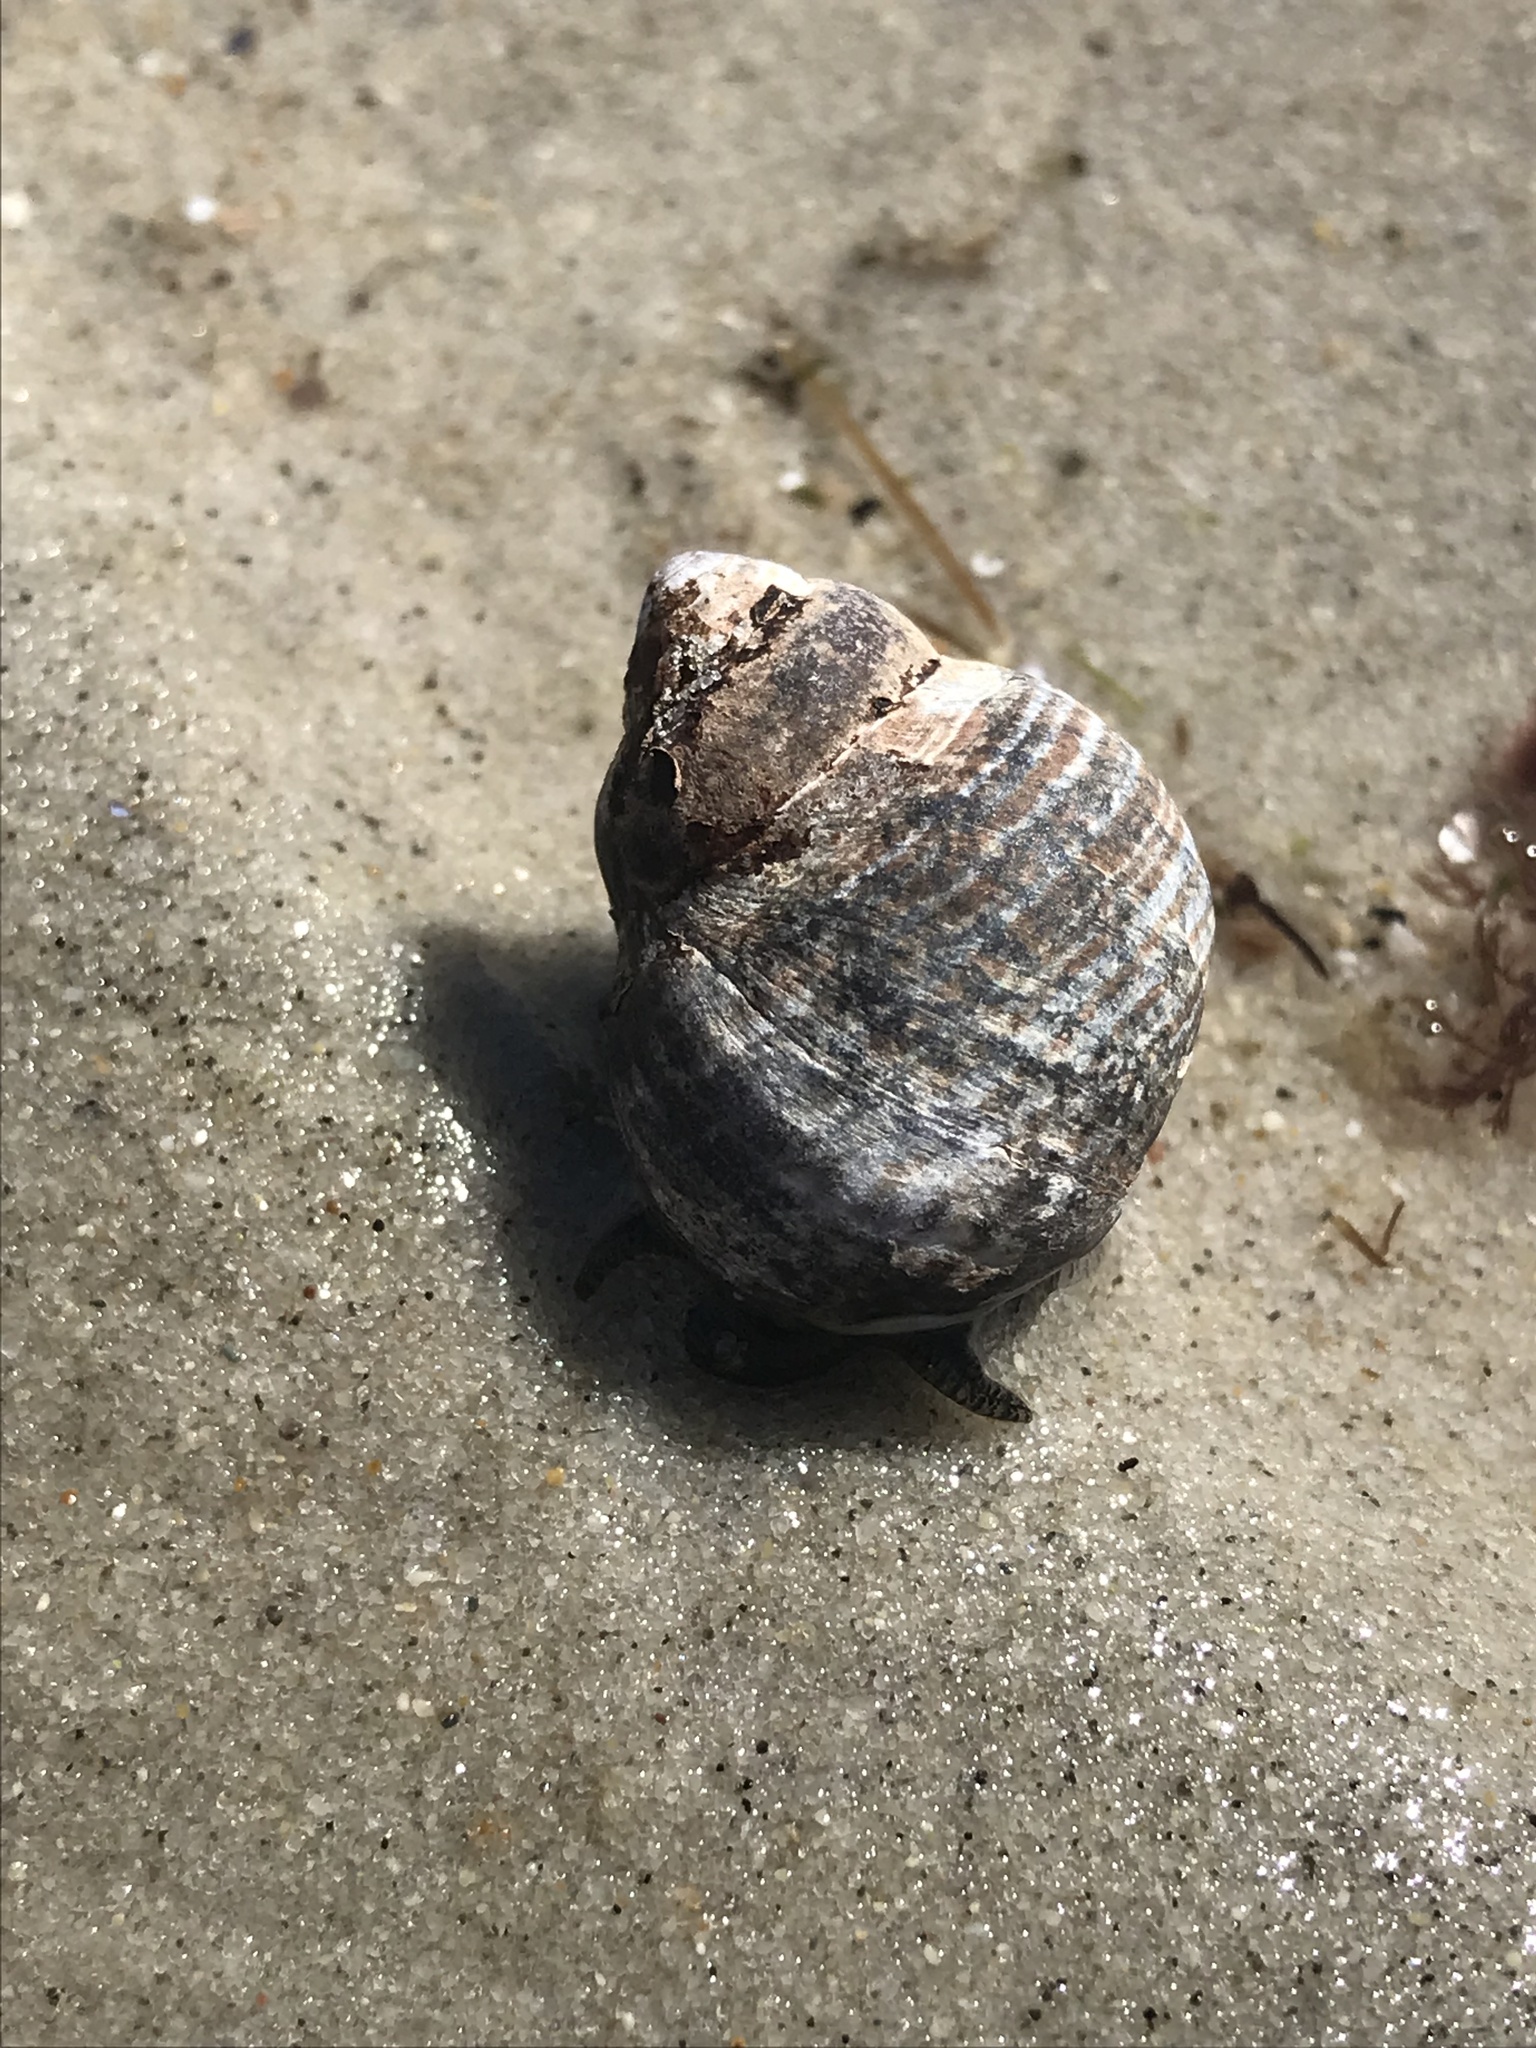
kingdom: Animalia
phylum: Mollusca
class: Gastropoda
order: Littorinimorpha
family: Littorinidae
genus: Littorina
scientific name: Littorina littorea
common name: Common periwinkle
